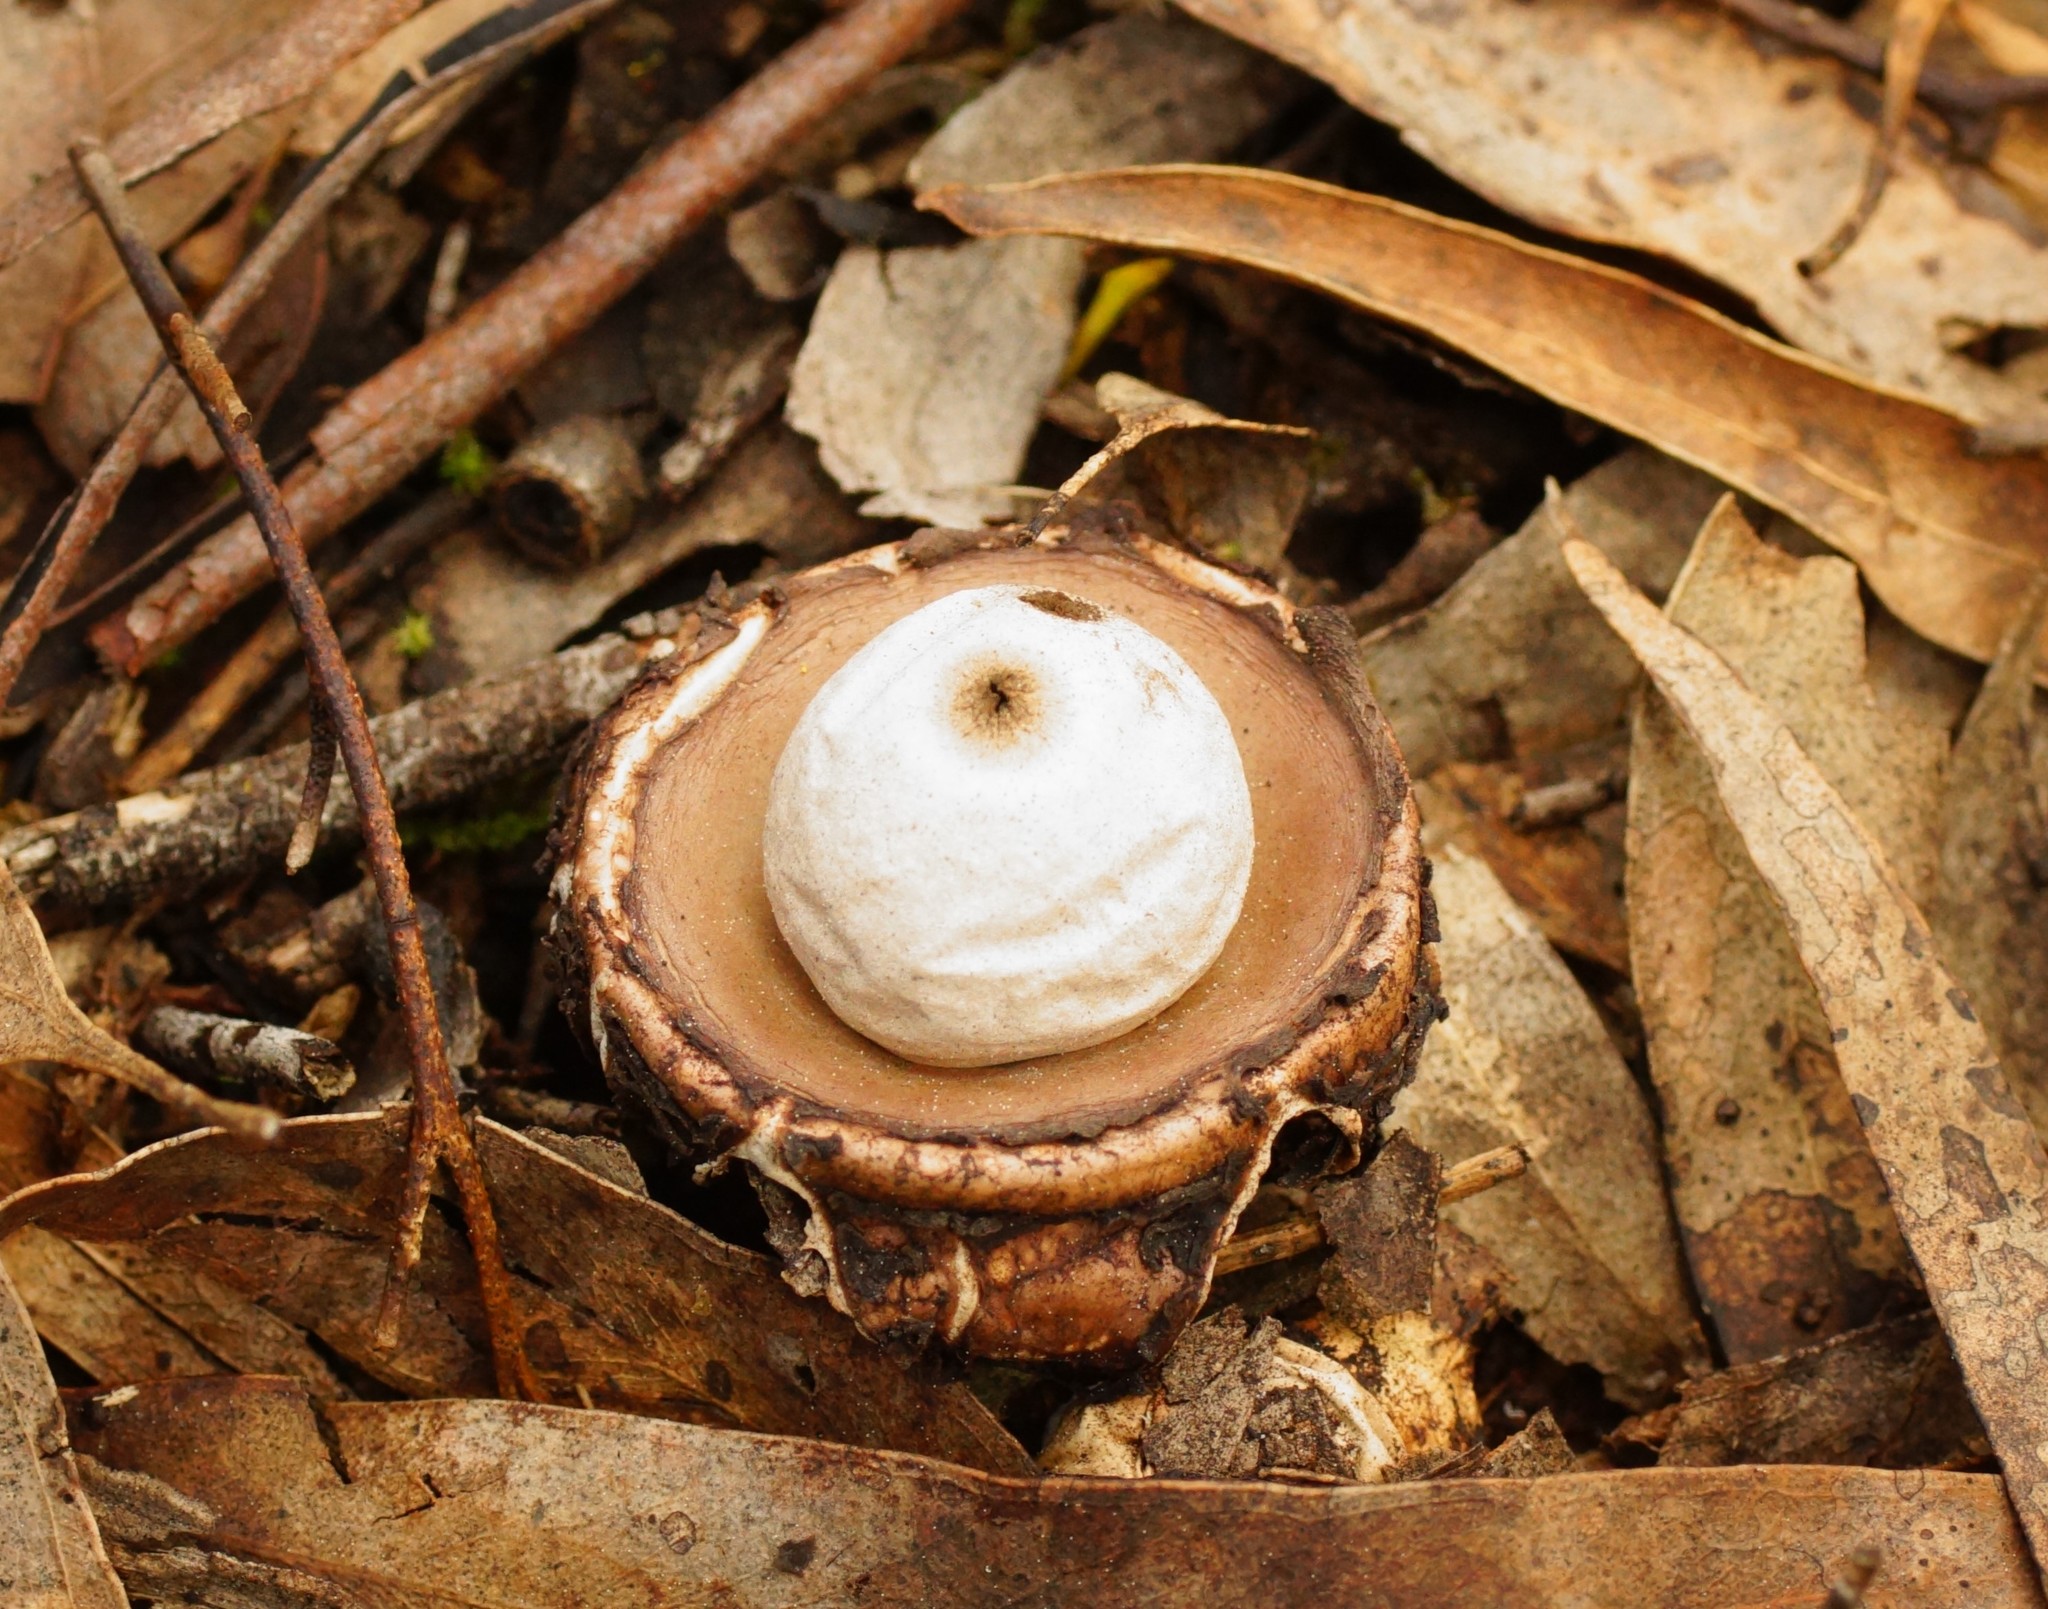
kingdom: Fungi
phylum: Basidiomycota
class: Agaricomycetes
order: Geastrales
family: Geastraceae
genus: Geastrum
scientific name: Geastrum triplex
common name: Collared earthstar
